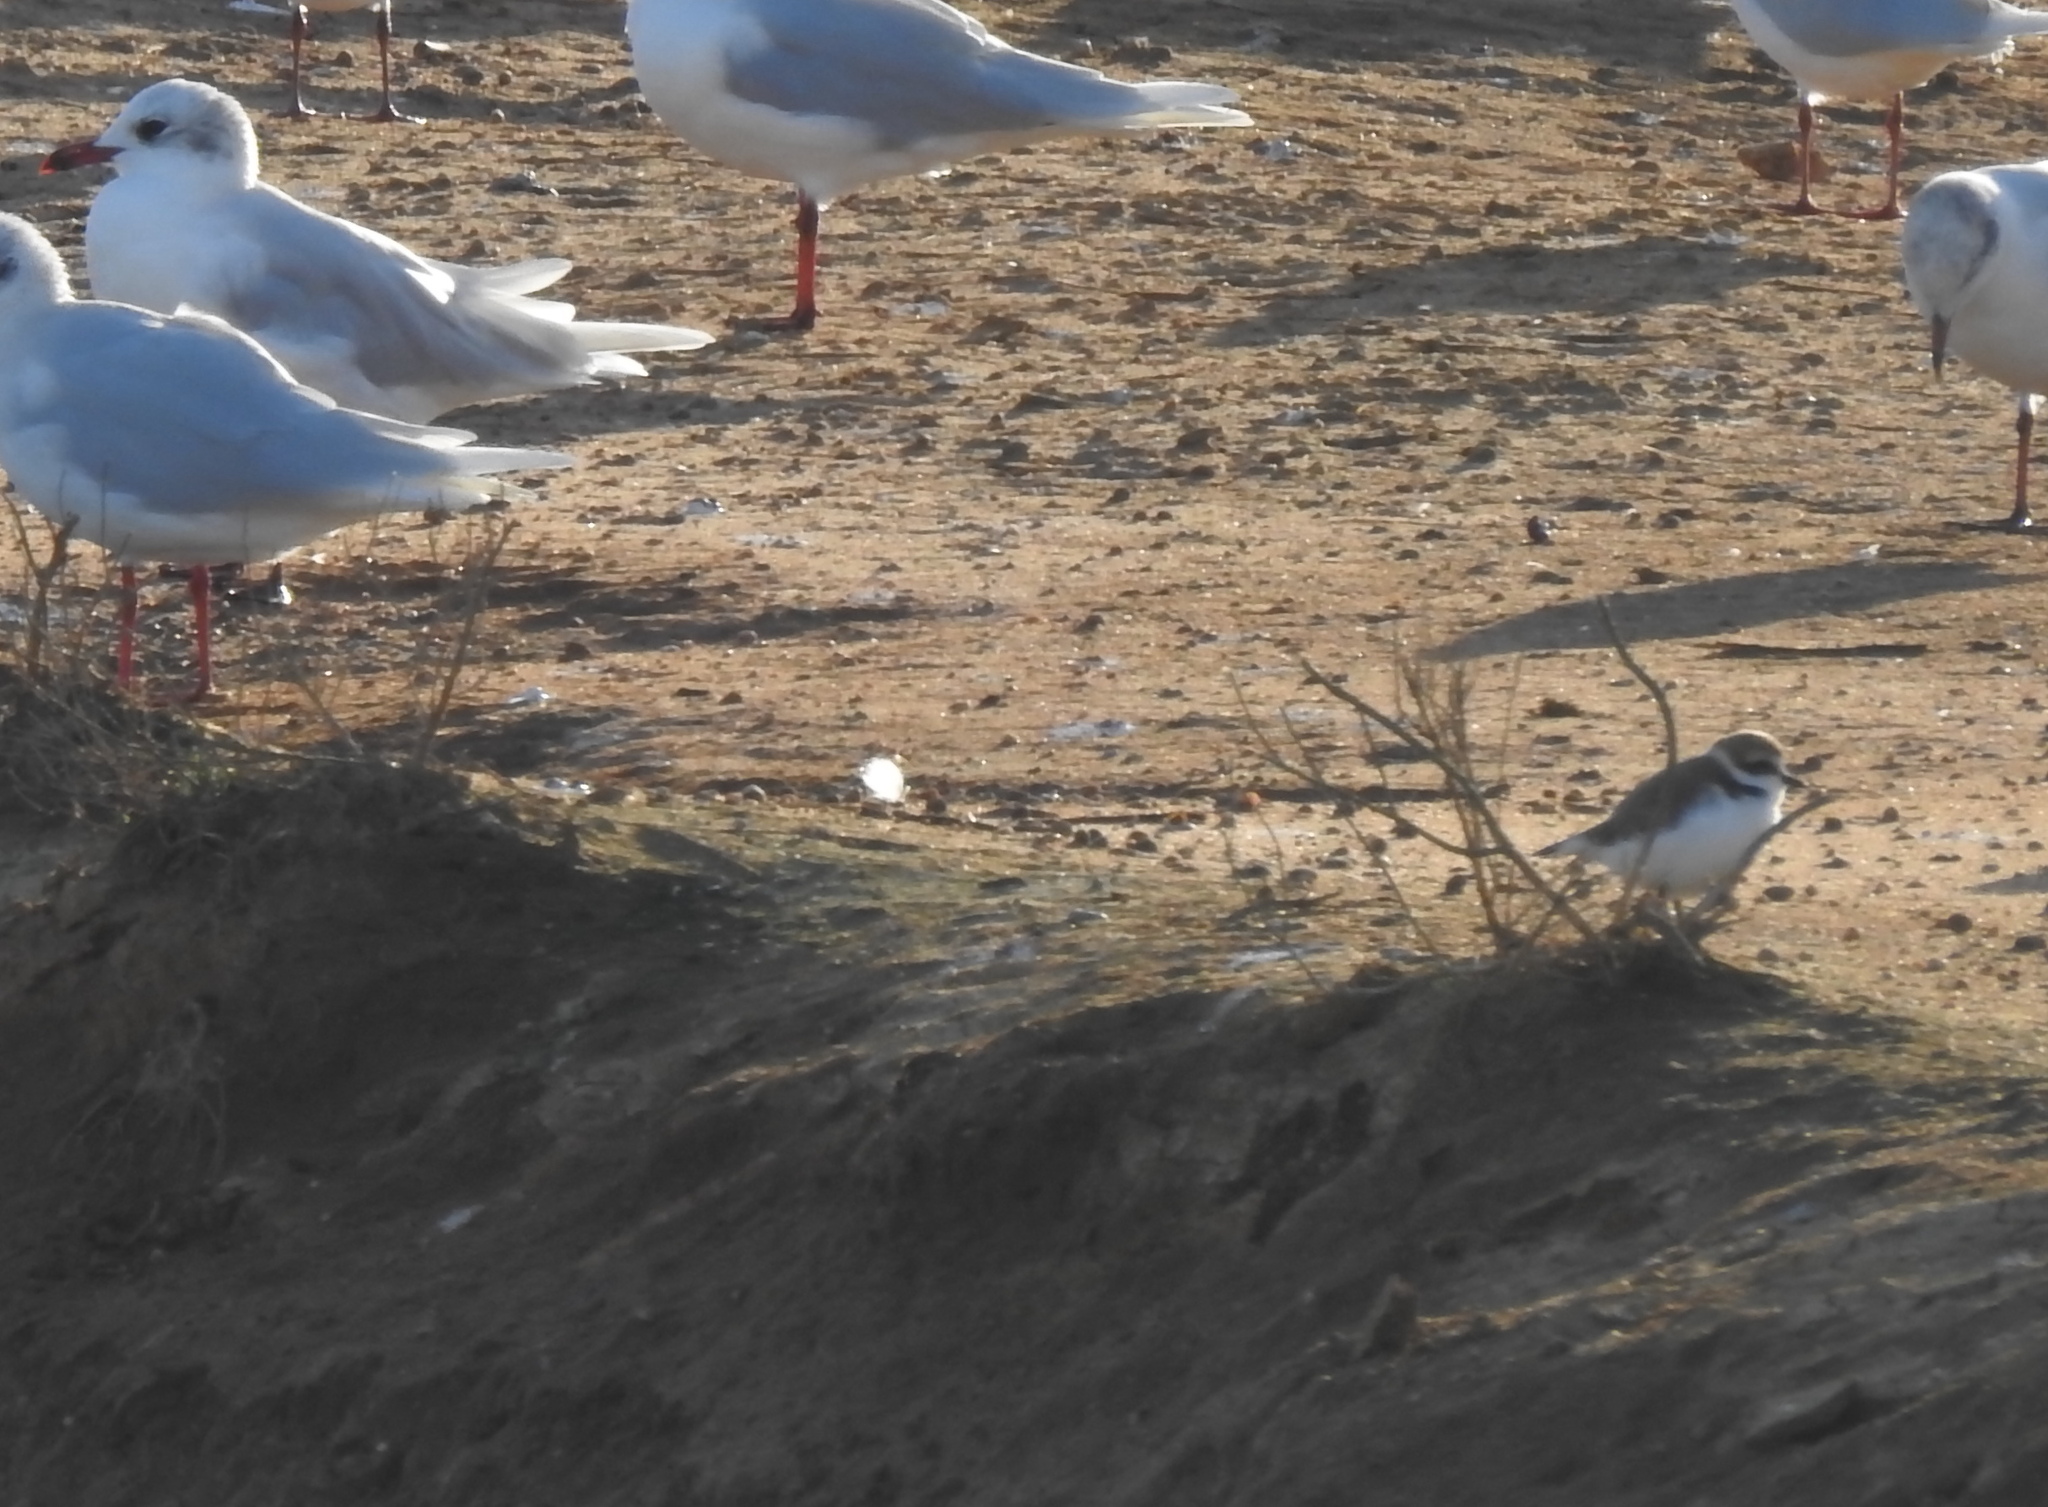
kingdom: Animalia
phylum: Chordata
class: Aves
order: Charadriiformes
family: Charadriidae
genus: Charadrius
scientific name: Charadrius alexandrinus
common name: Kentish plover
